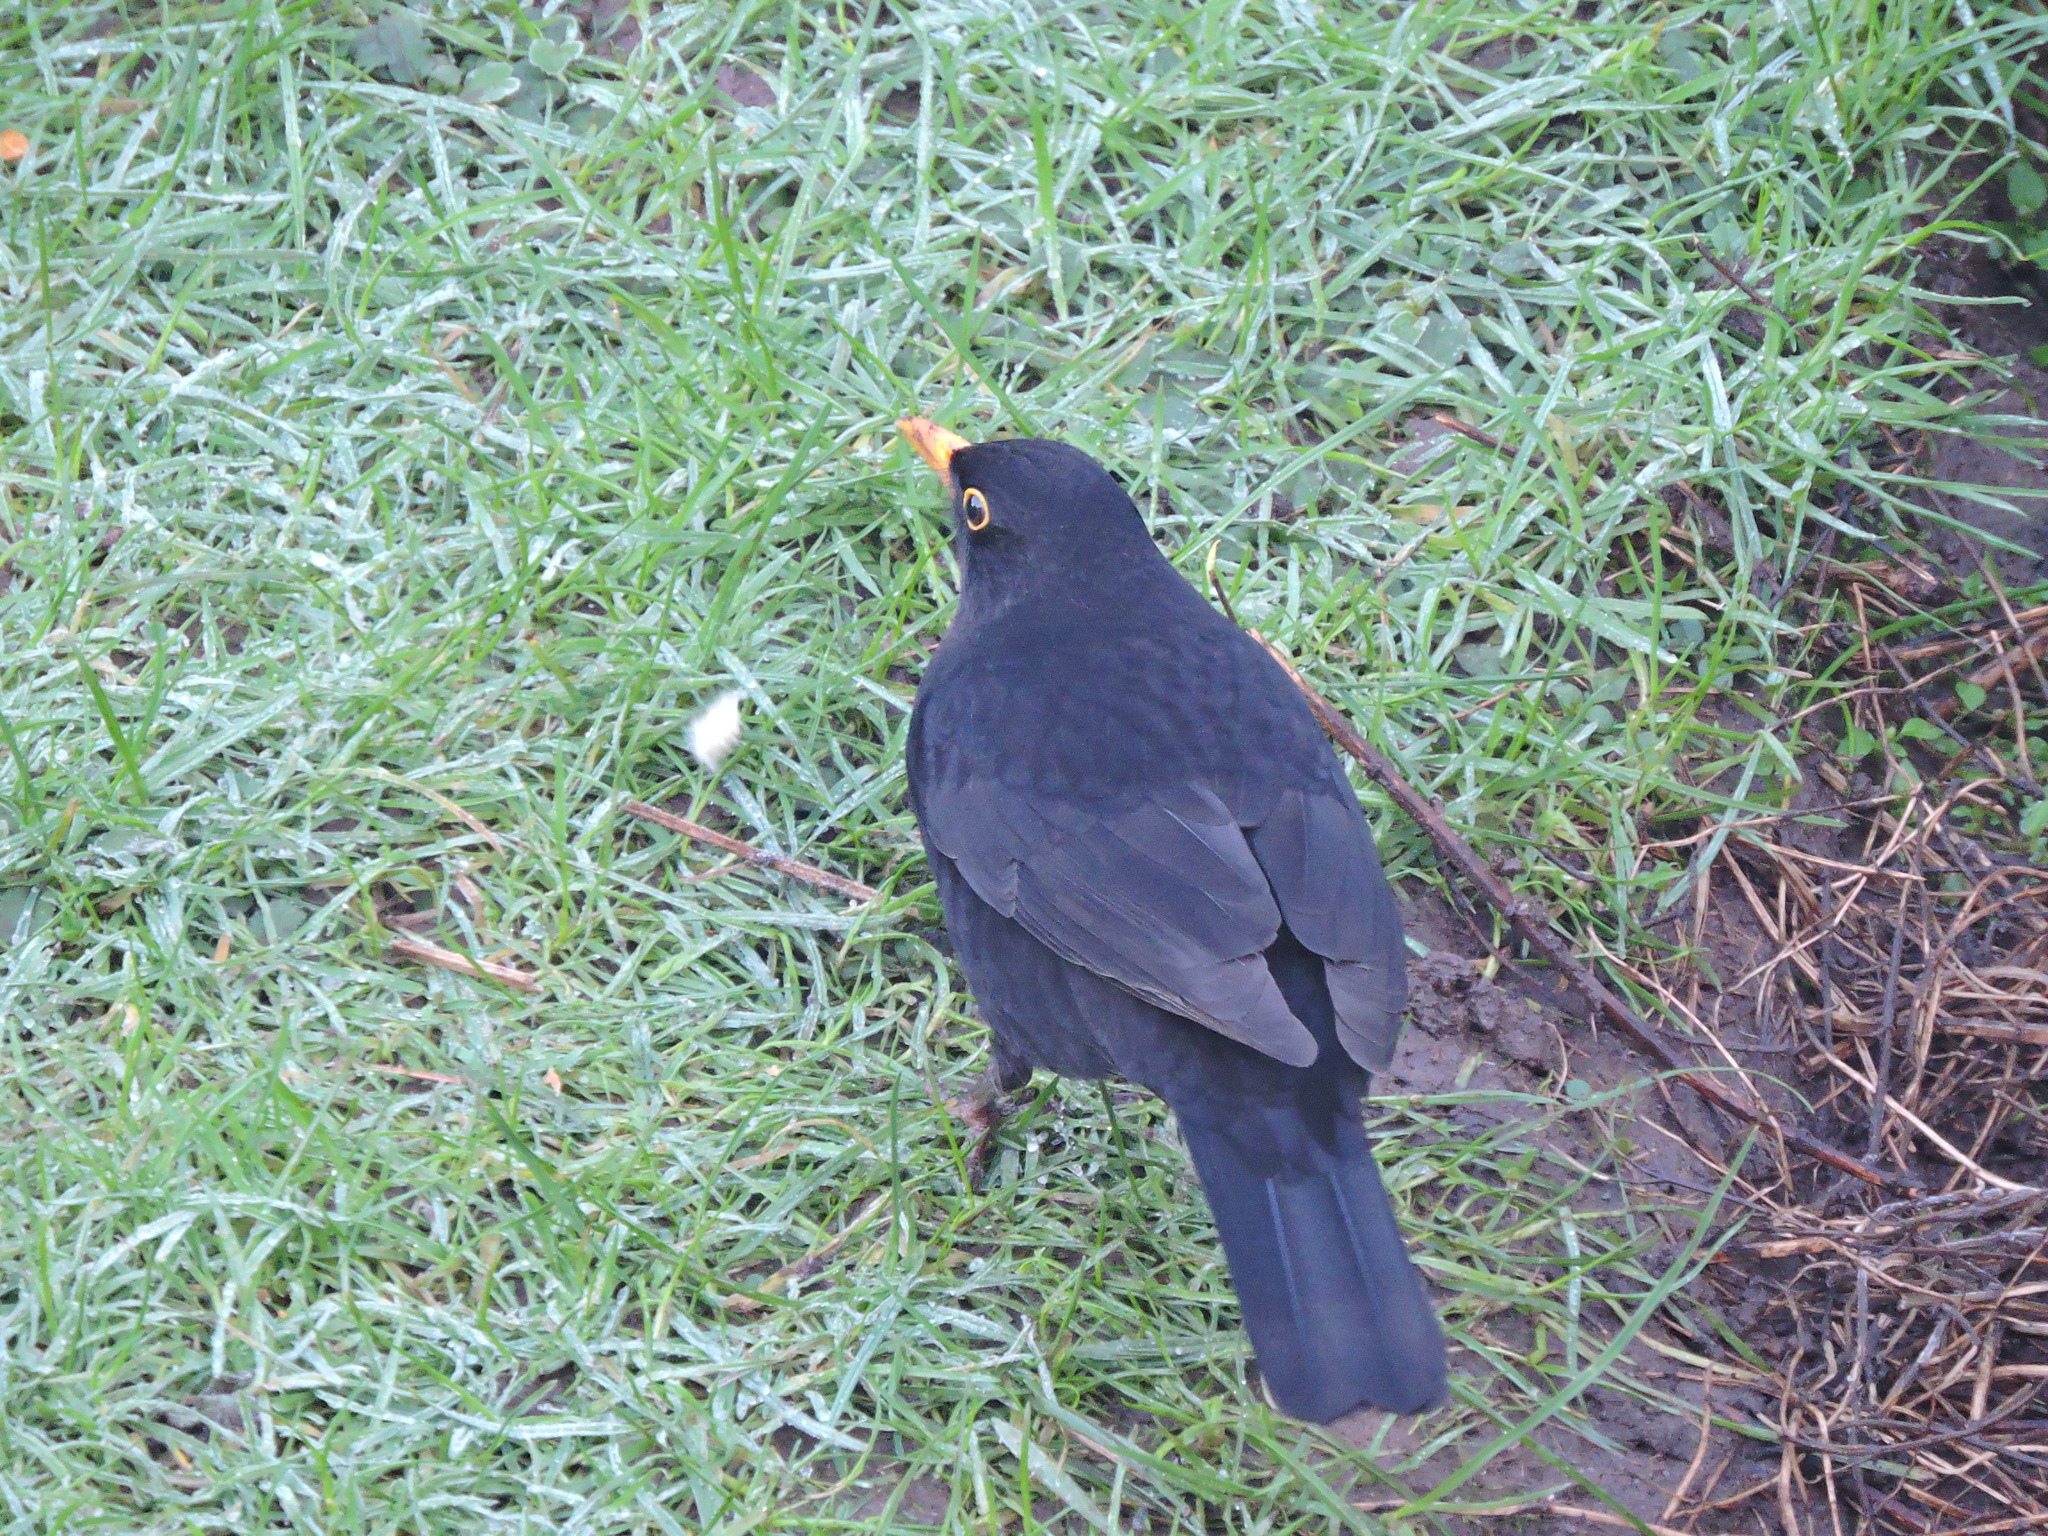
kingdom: Animalia
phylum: Chordata
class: Aves
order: Passeriformes
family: Turdidae
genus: Turdus
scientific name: Turdus merula
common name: Common blackbird
